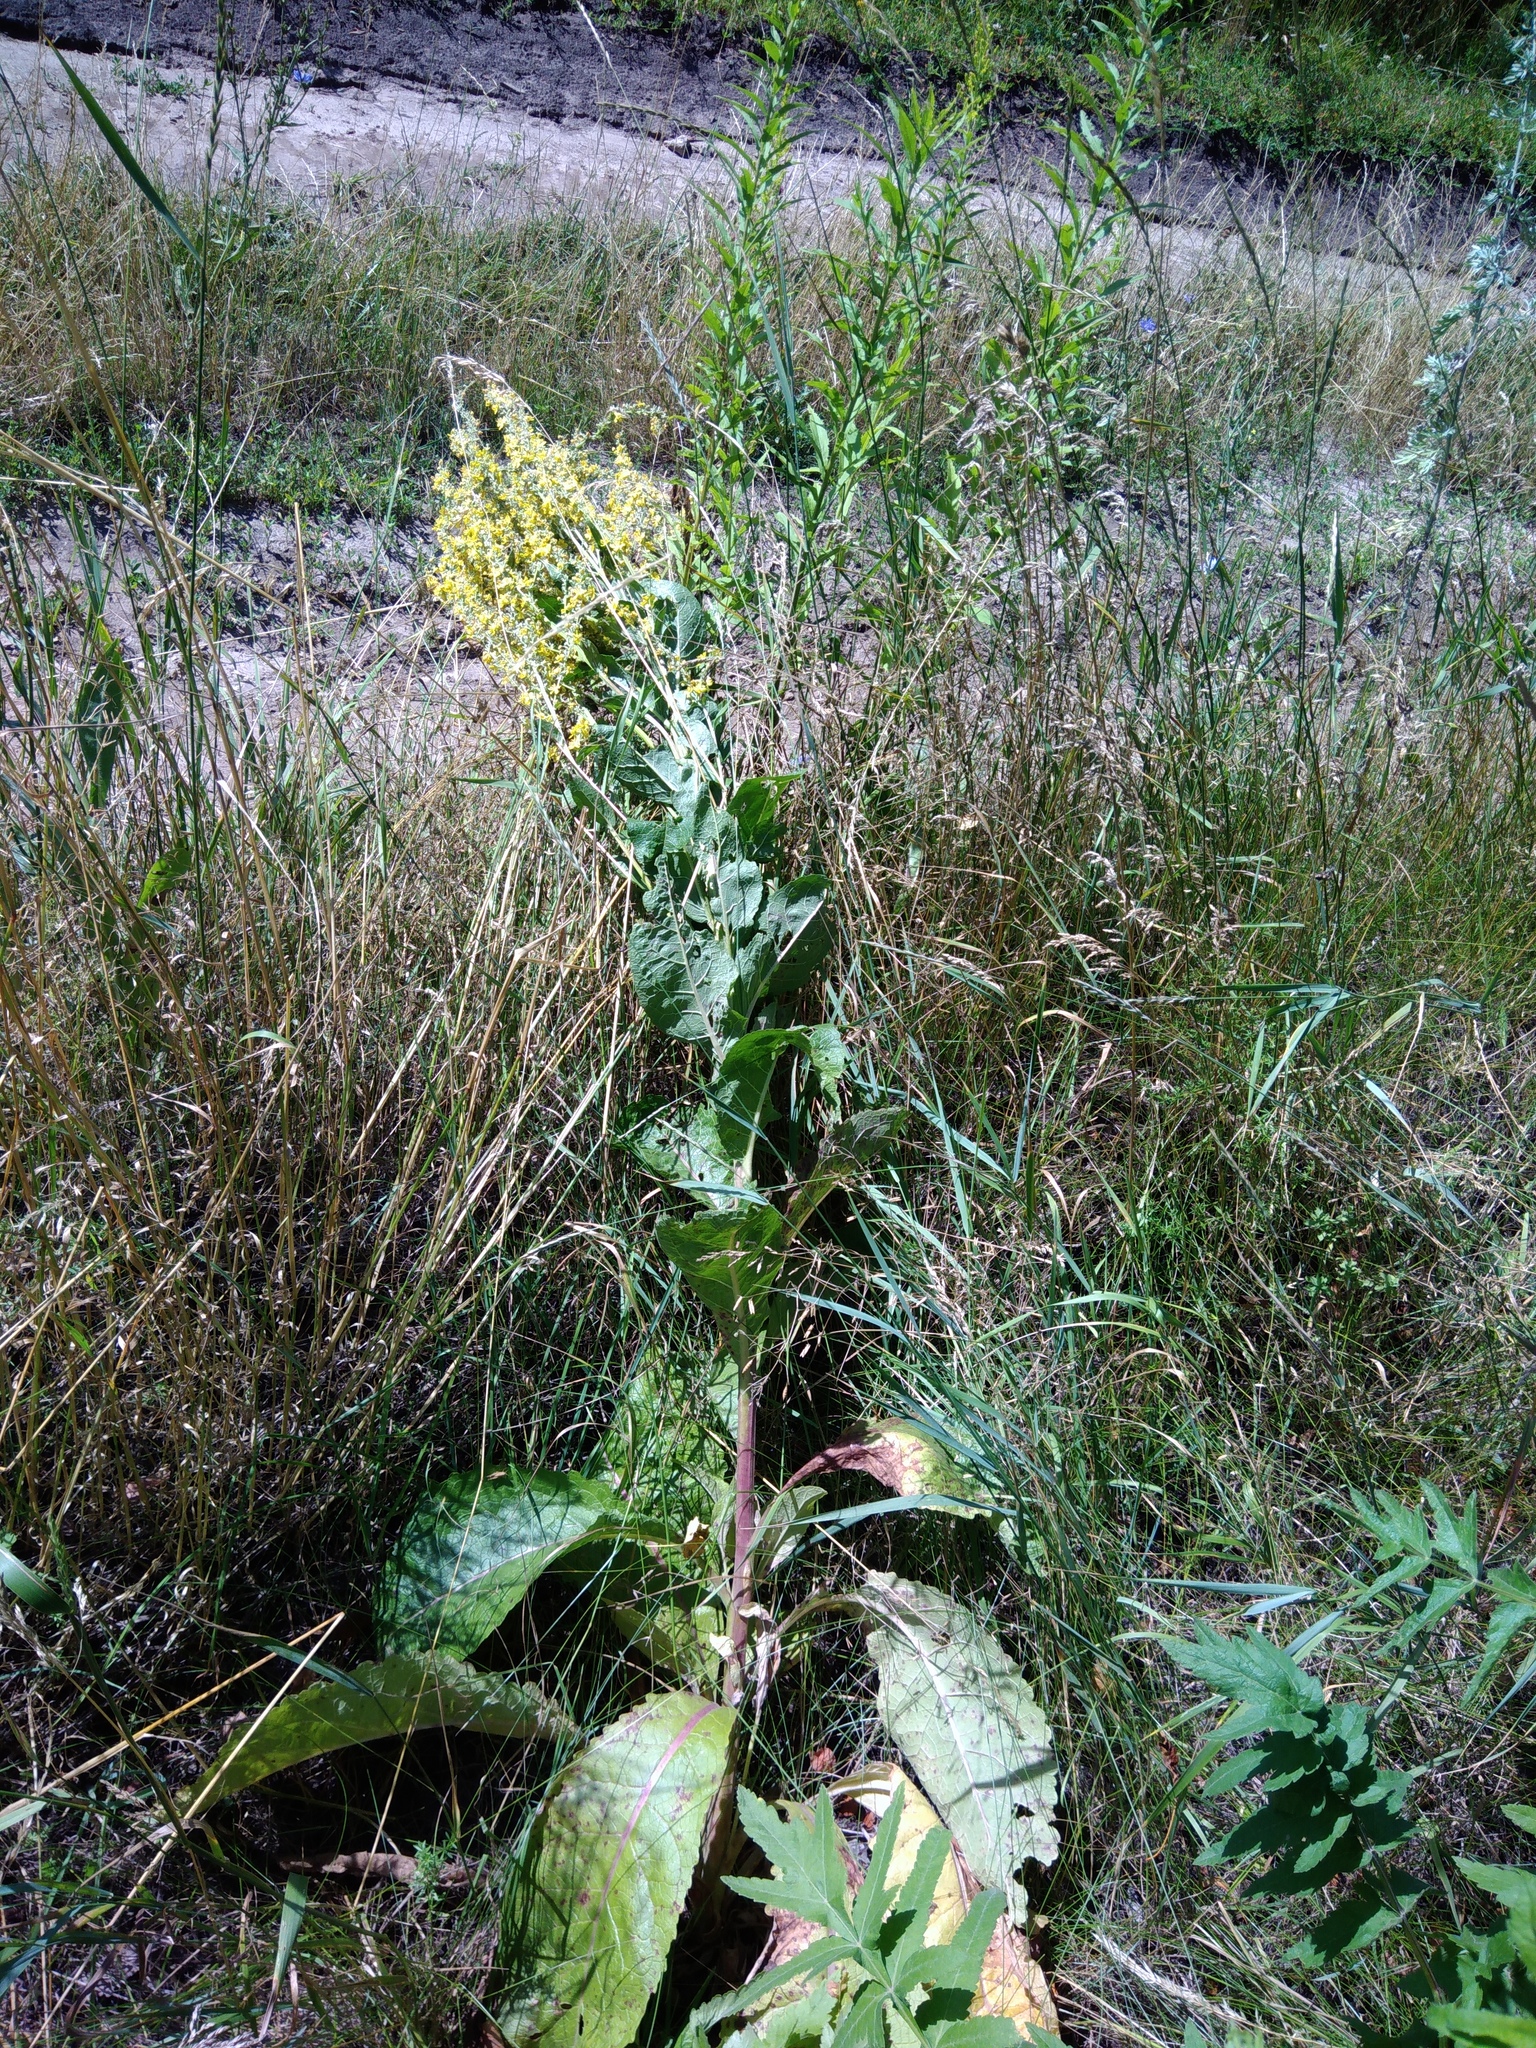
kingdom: Plantae
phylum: Tracheophyta
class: Magnoliopsida
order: Lamiales
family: Scrophulariaceae
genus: Verbascum
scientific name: Verbascum lychnitis
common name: White mullein
